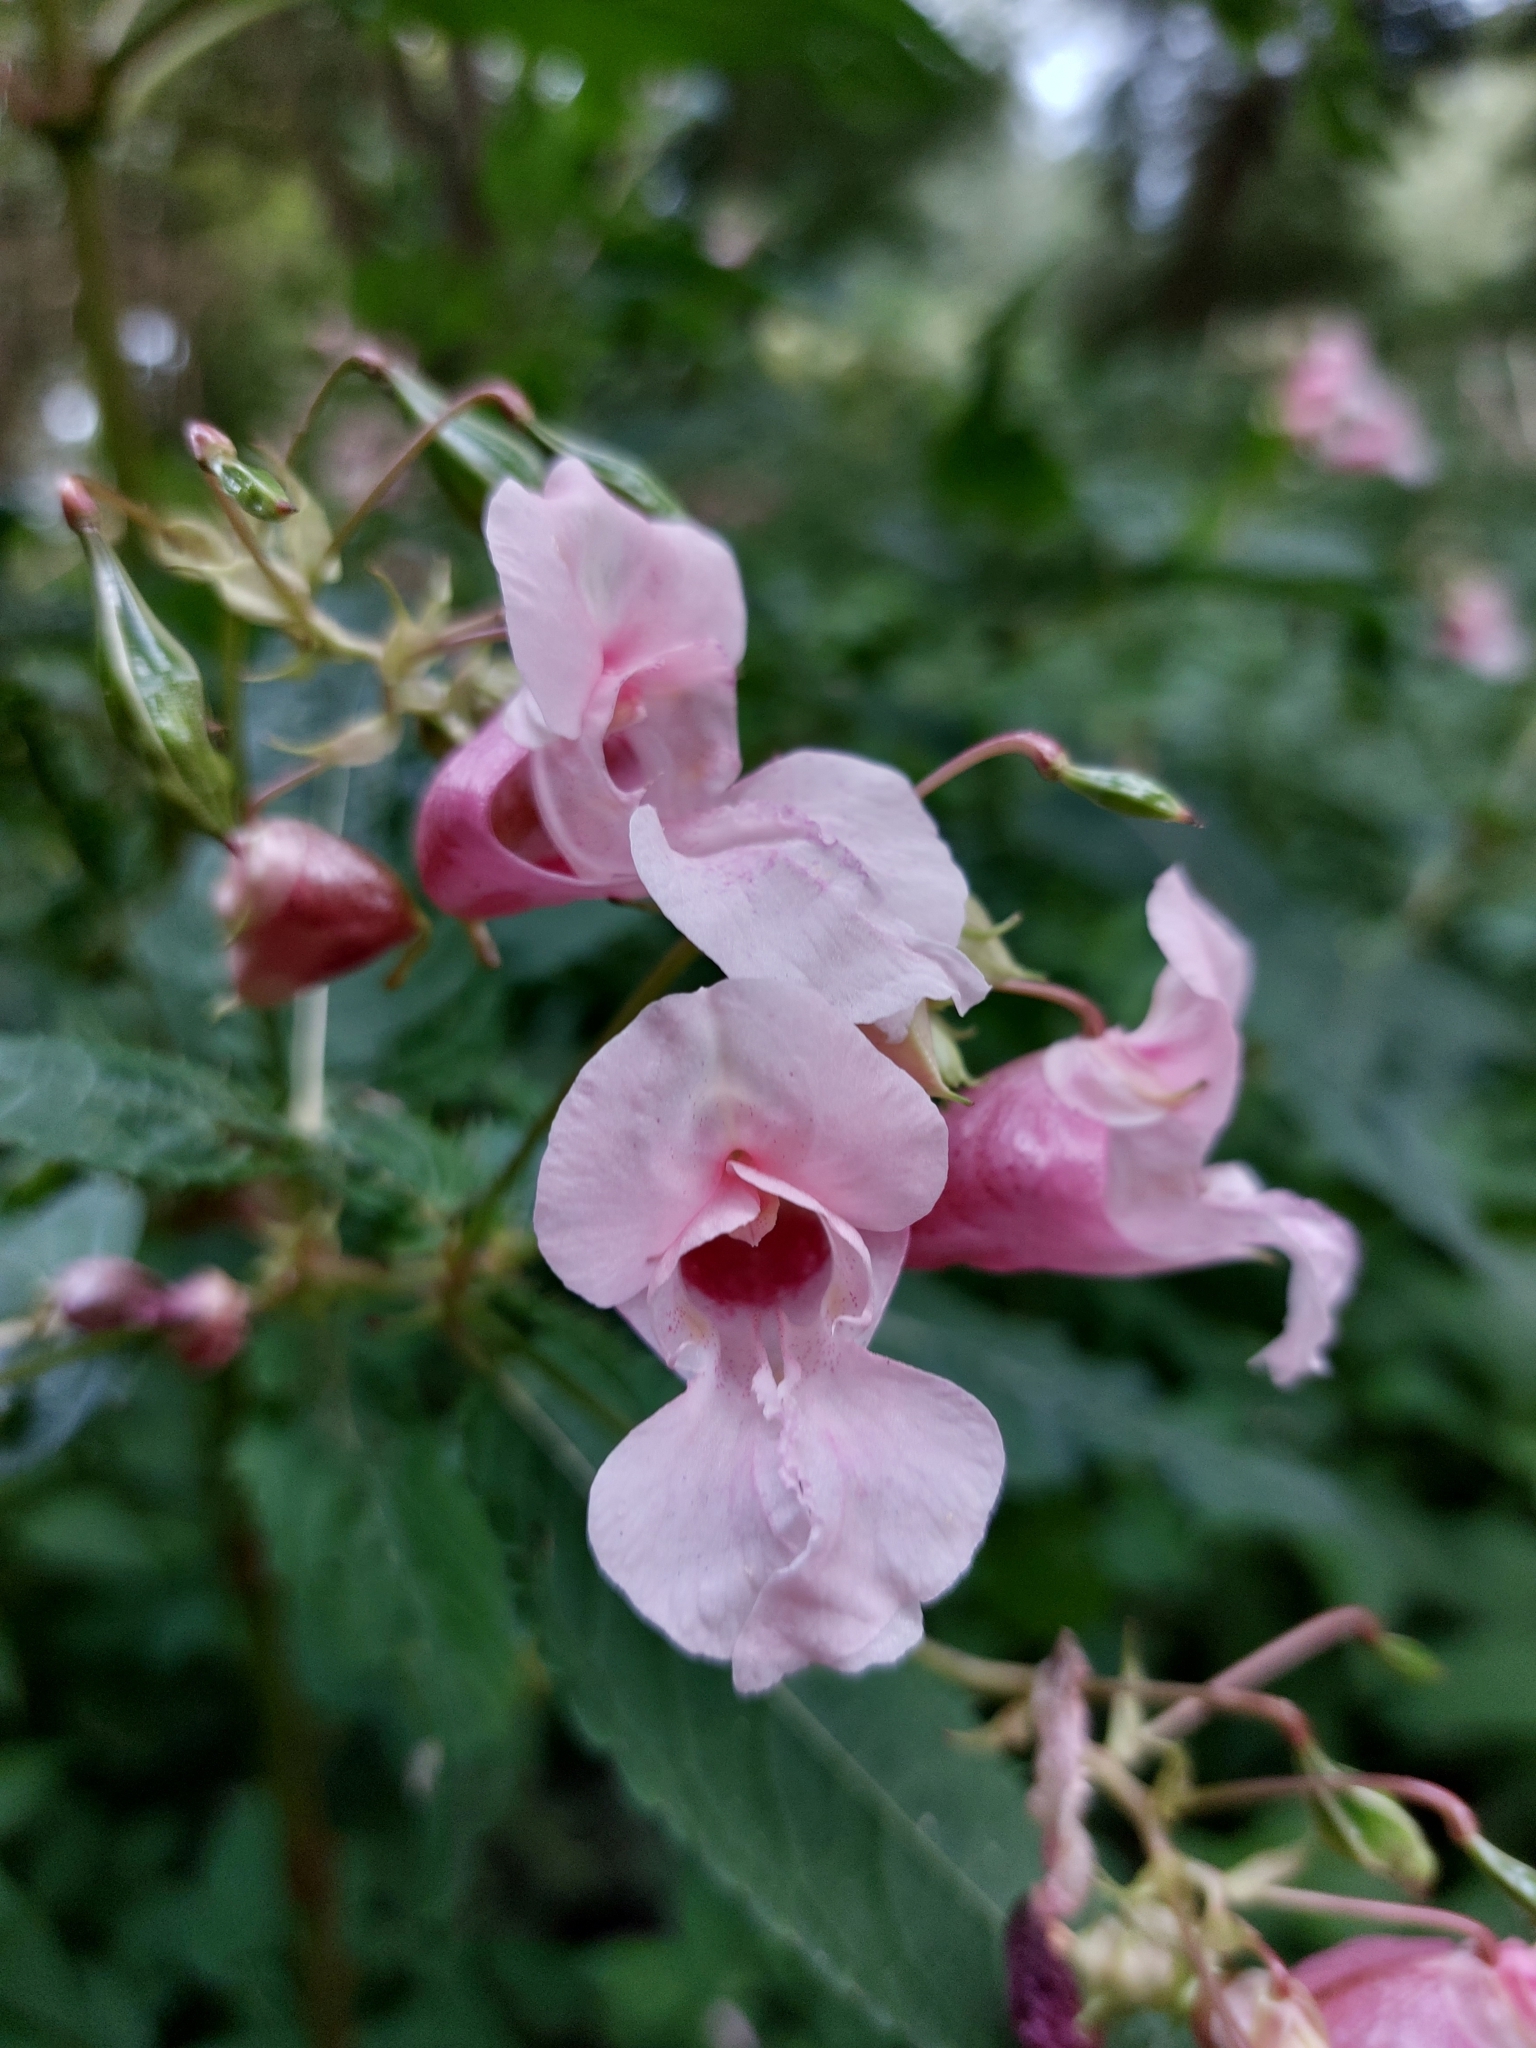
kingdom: Plantae
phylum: Tracheophyta
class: Magnoliopsida
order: Ericales
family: Balsaminaceae
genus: Impatiens
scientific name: Impatiens glandulifera
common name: Himalayan balsam
